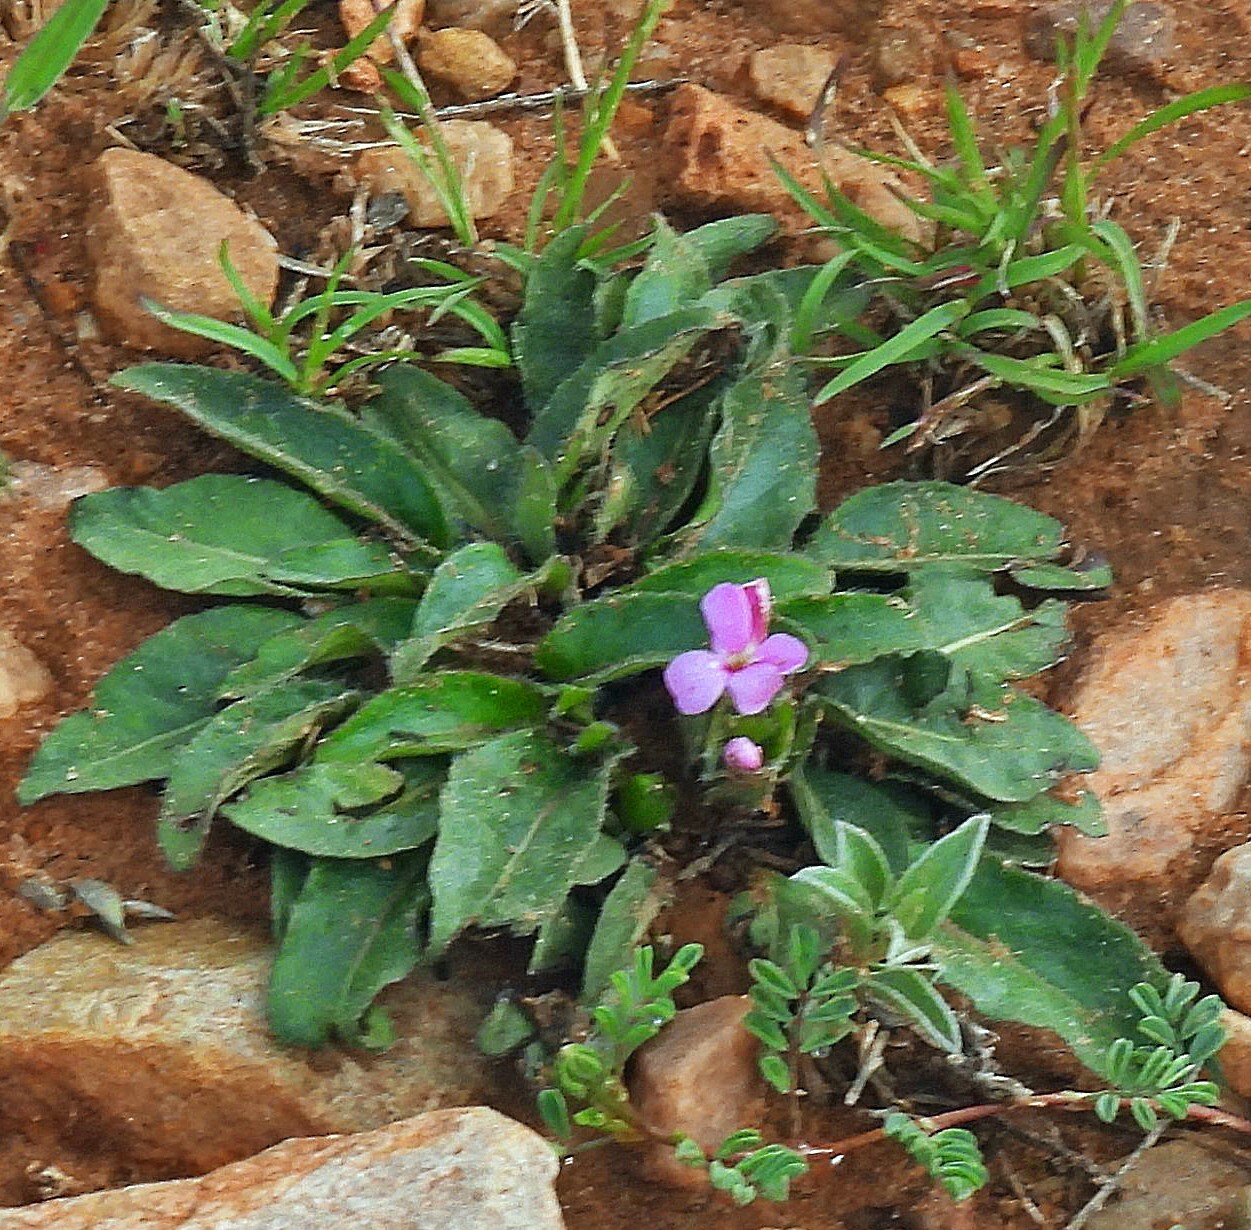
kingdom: Plantae
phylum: Tracheophyta
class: Magnoliopsida
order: Lamiales
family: Acanthaceae
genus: Stenandrium
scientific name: Stenandrium dulce
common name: Pinklet
